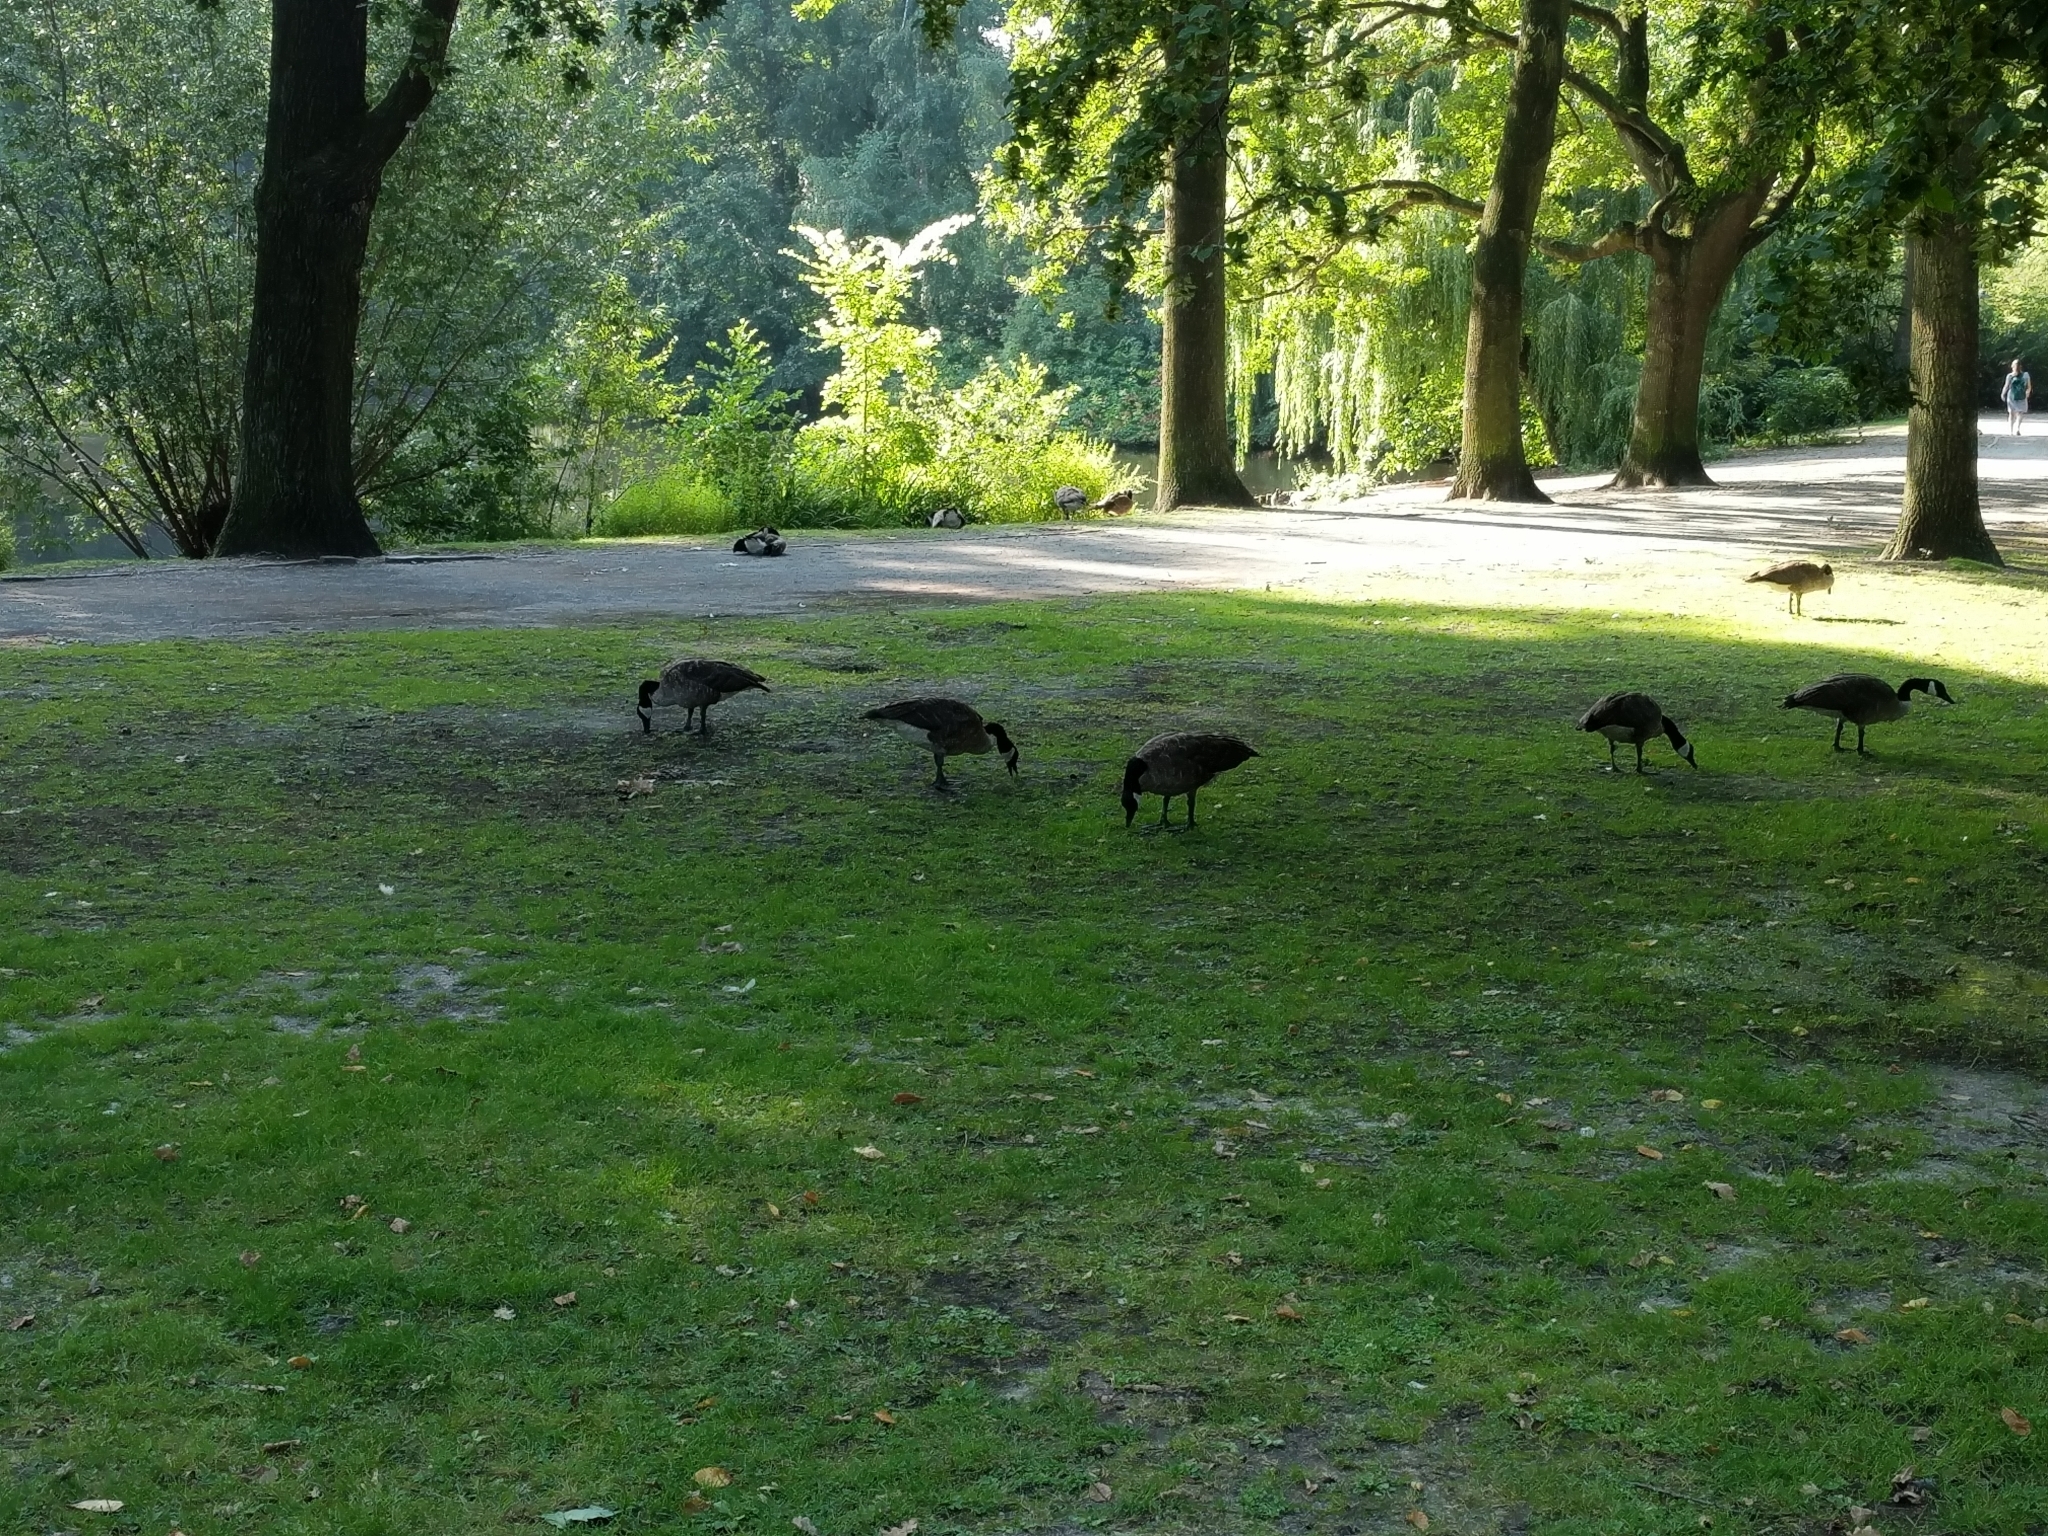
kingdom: Animalia
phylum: Chordata
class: Aves
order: Anseriformes
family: Anatidae
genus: Branta
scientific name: Branta canadensis
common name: Canada goose
